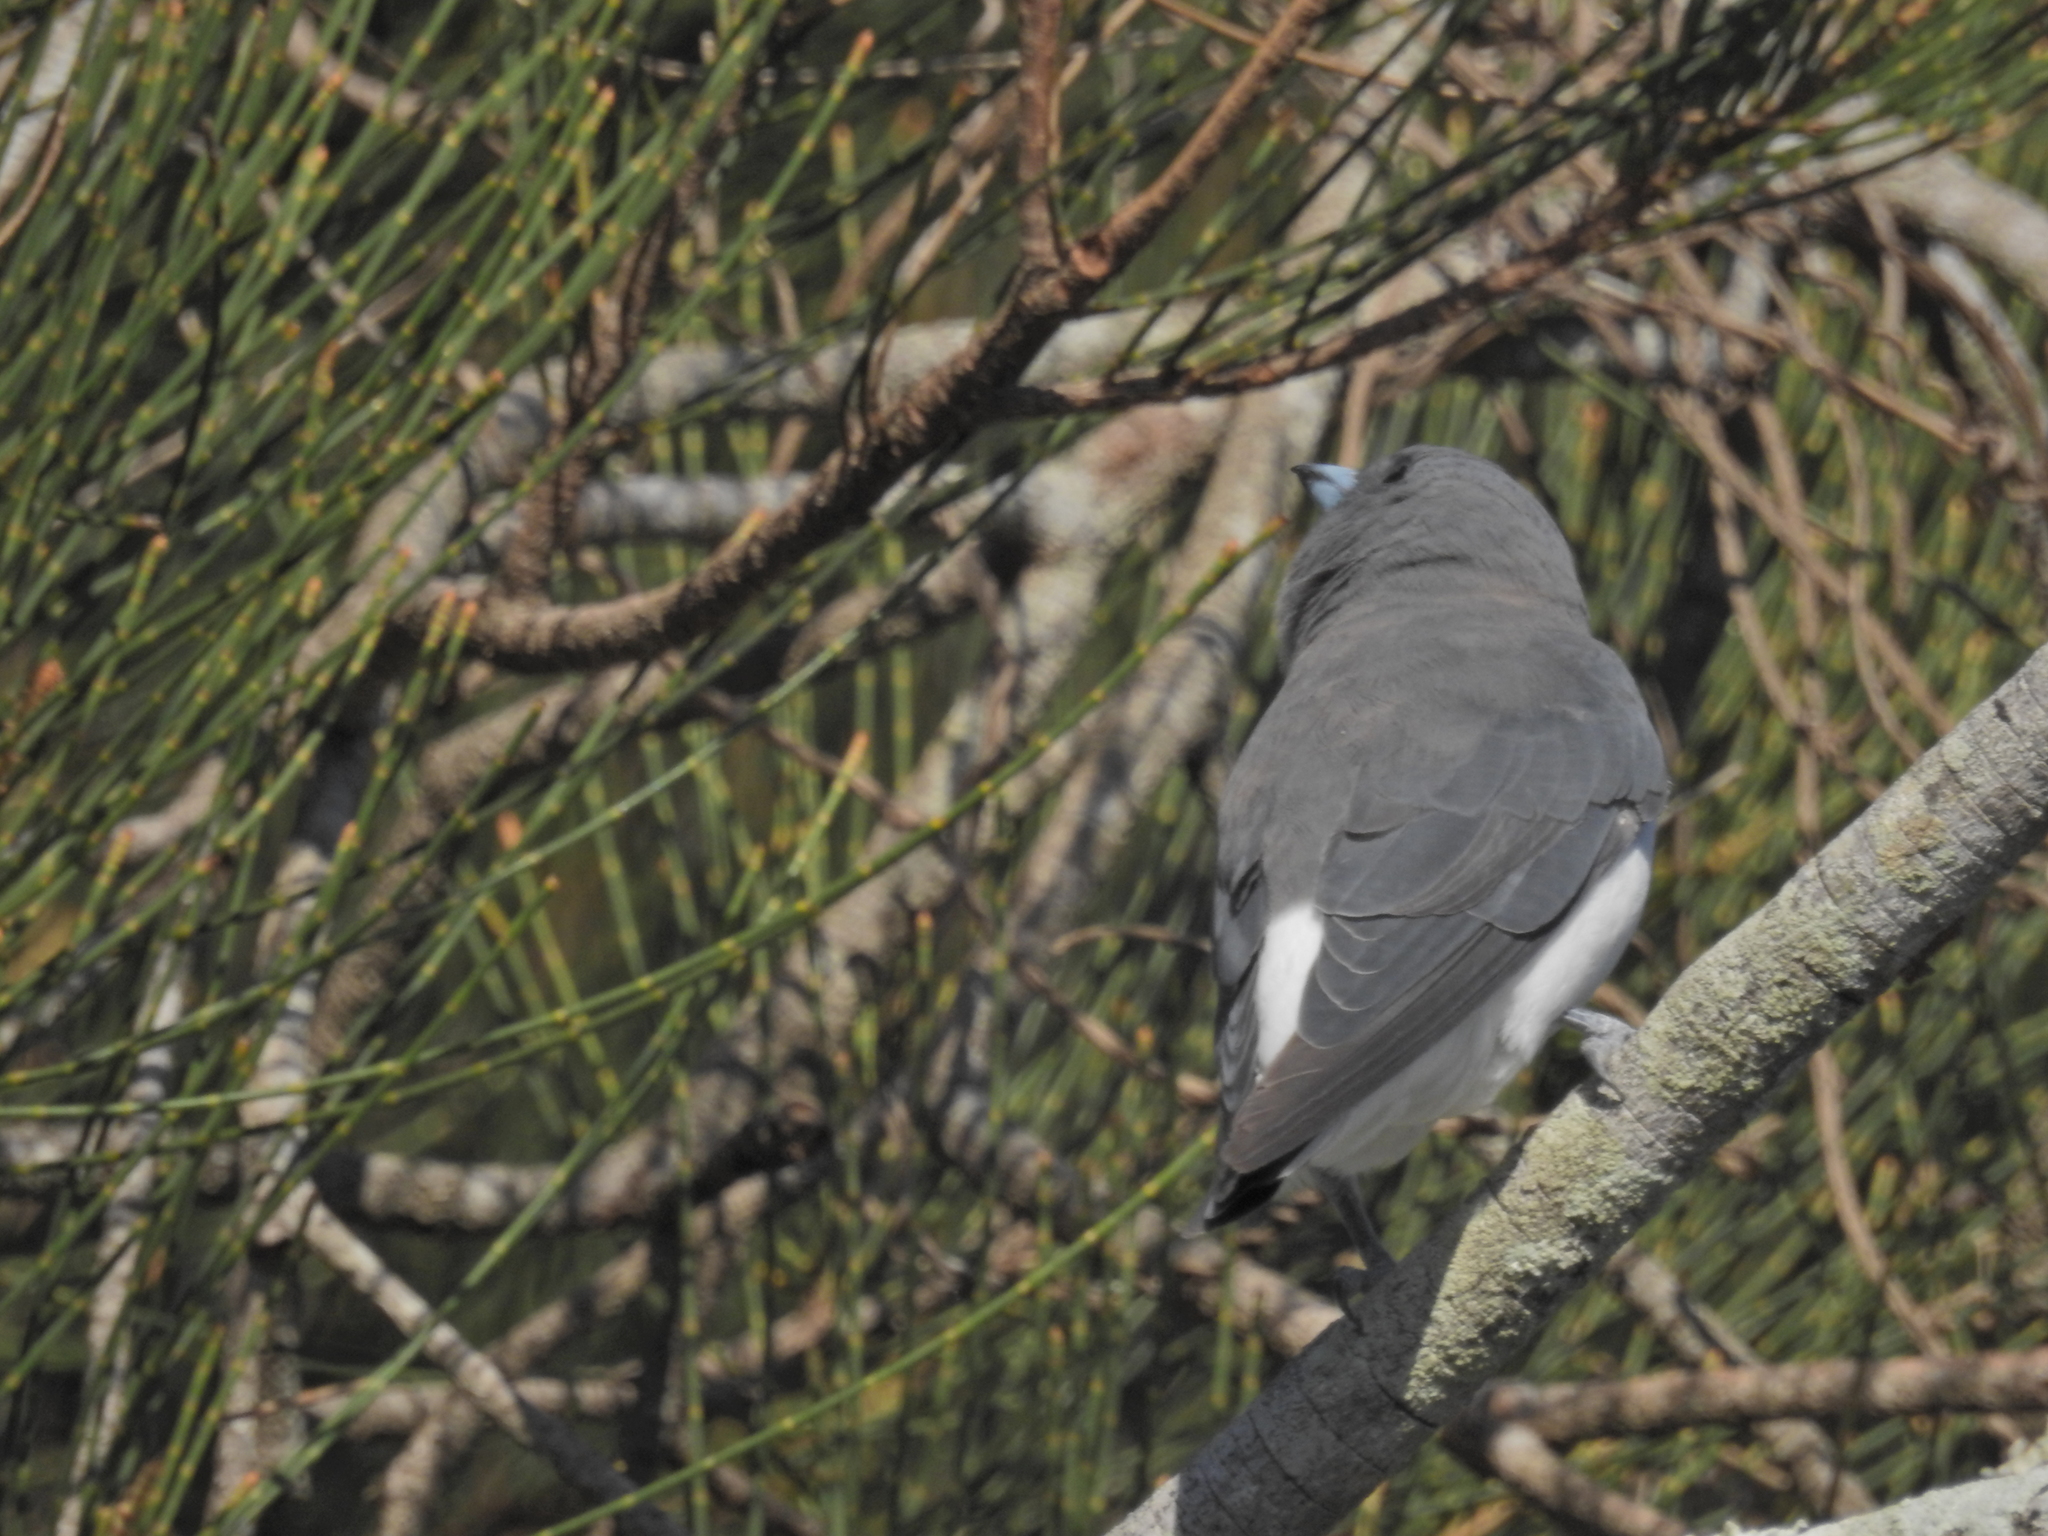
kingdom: Animalia
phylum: Chordata
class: Aves
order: Passeriformes
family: Artamidae
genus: Artamus
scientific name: Artamus leucoryn
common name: White-breasted woodswallow
